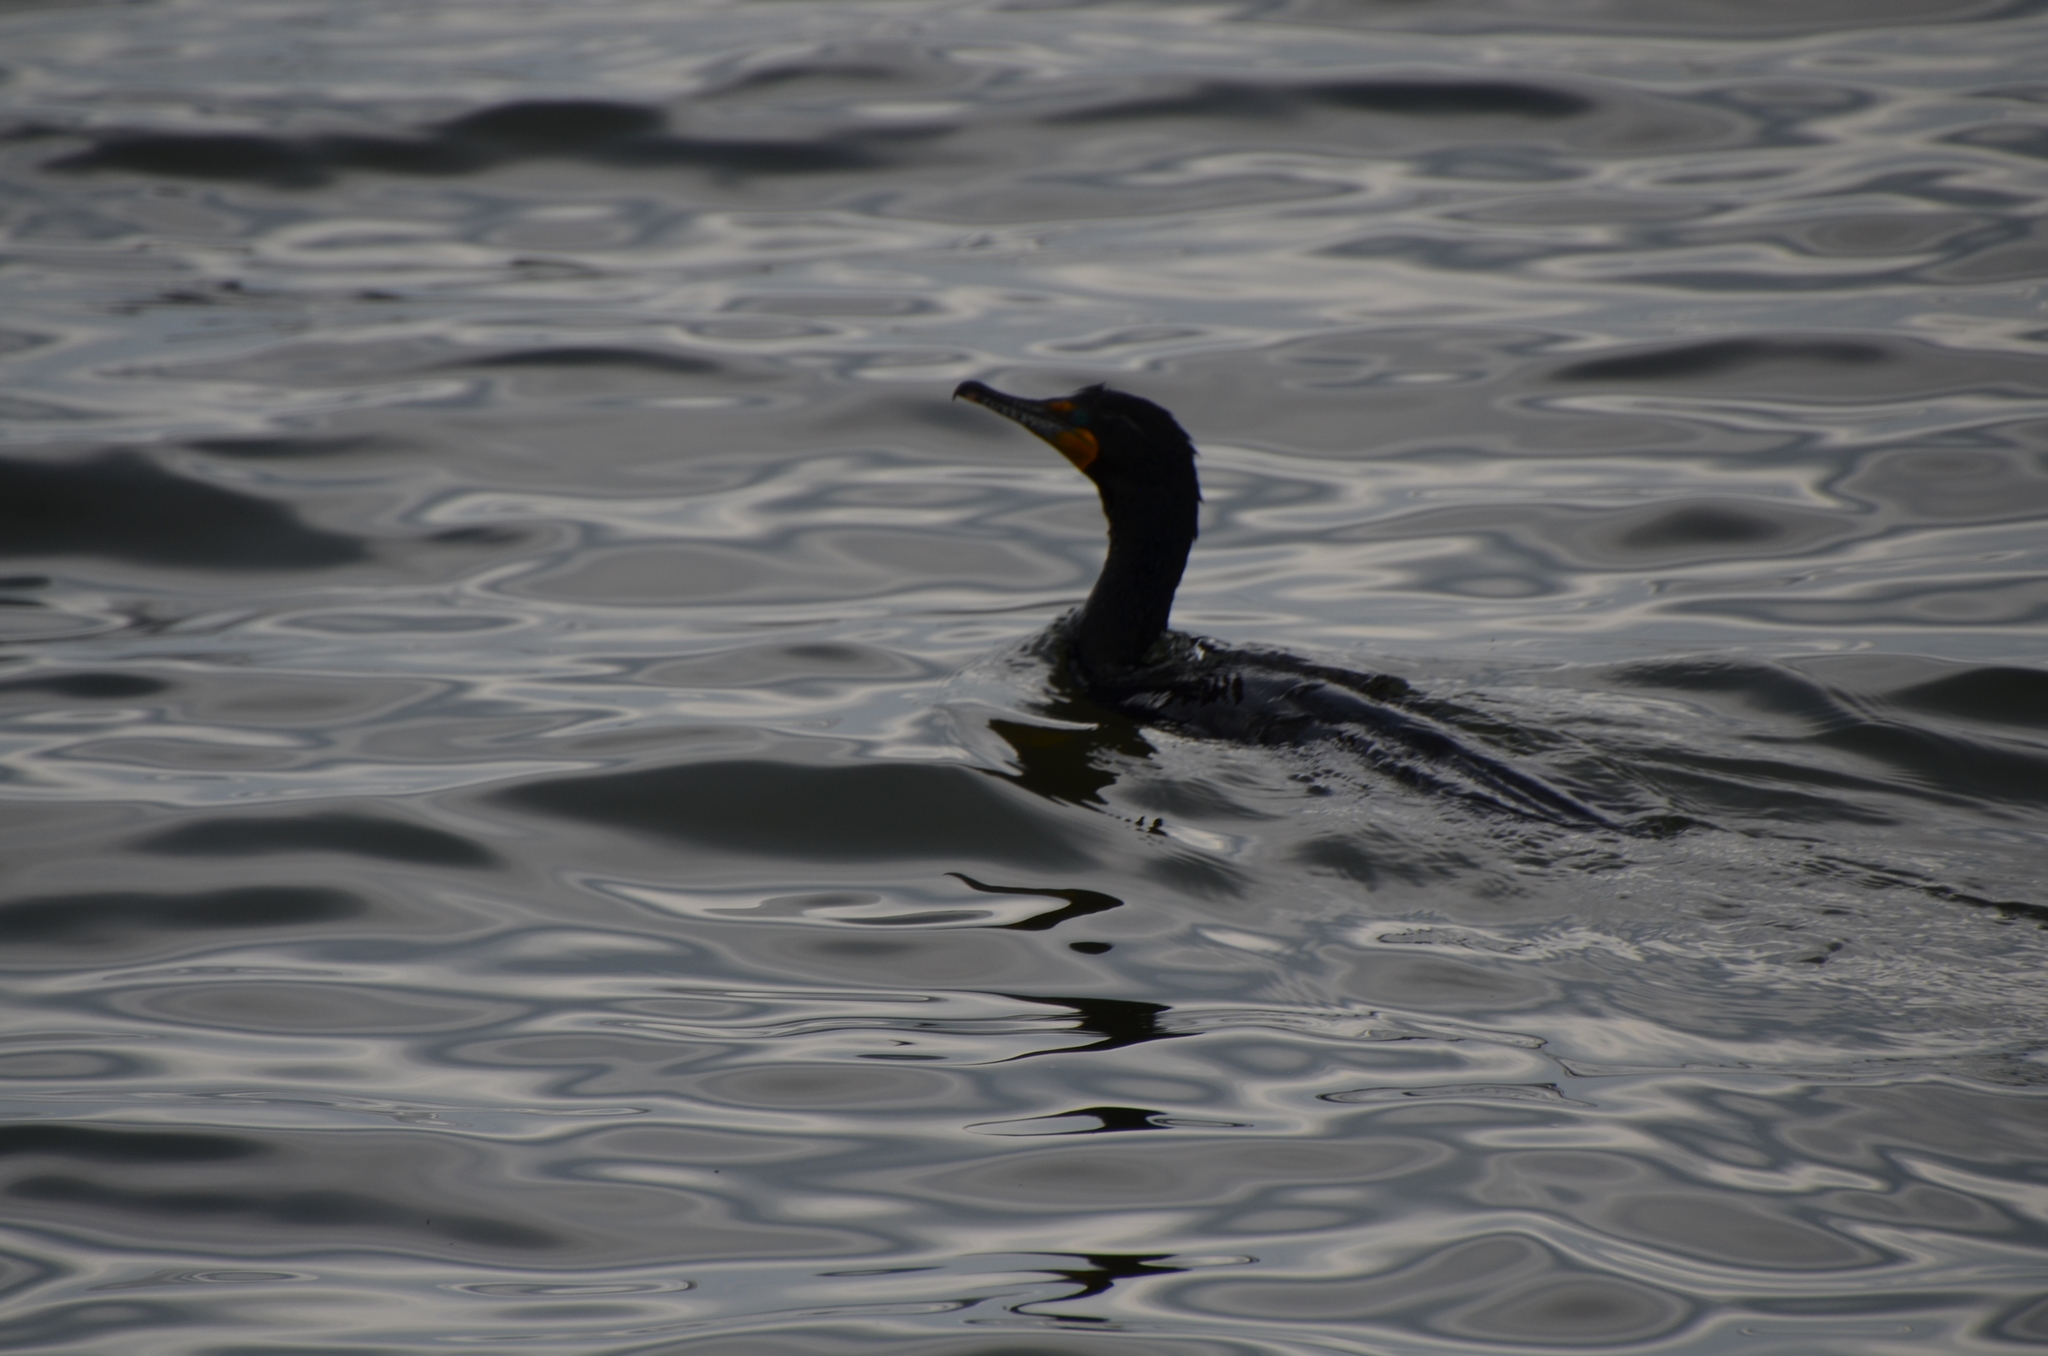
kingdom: Animalia
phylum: Chordata
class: Aves
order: Suliformes
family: Phalacrocoracidae
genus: Phalacrocorax
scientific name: Phalacrocorax auritus
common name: Double-crested cormorant
